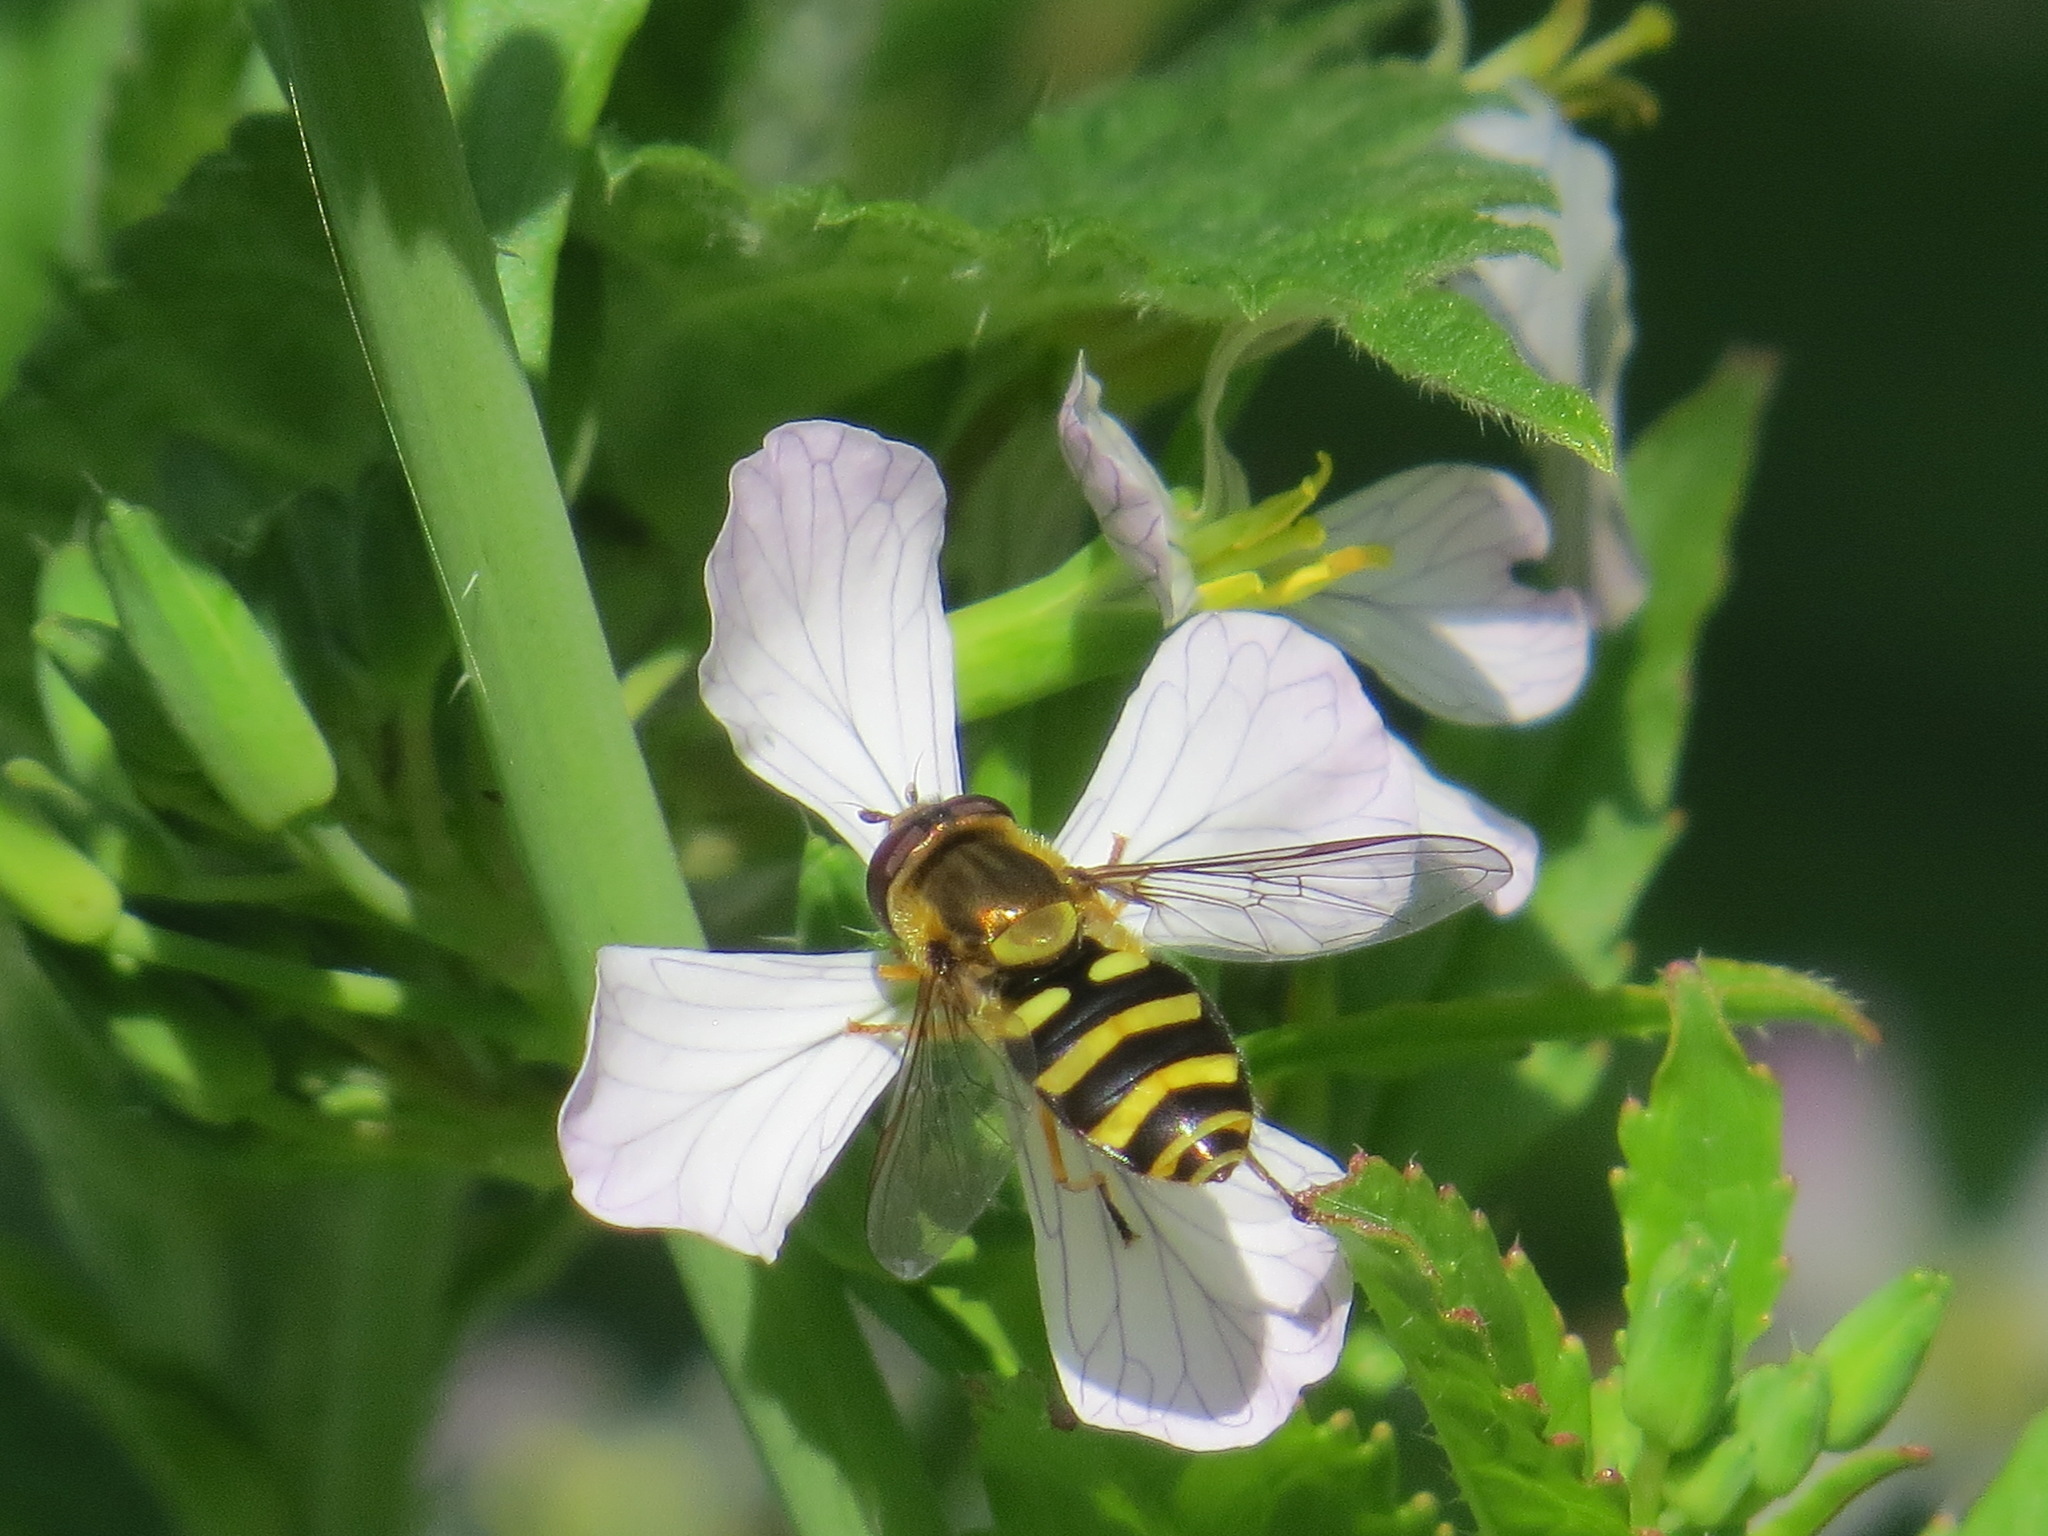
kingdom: Animalia
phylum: Arthropoda
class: Insecta
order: Diptera
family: Syrphidae
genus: Syrphus
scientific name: Syrphus opinator
